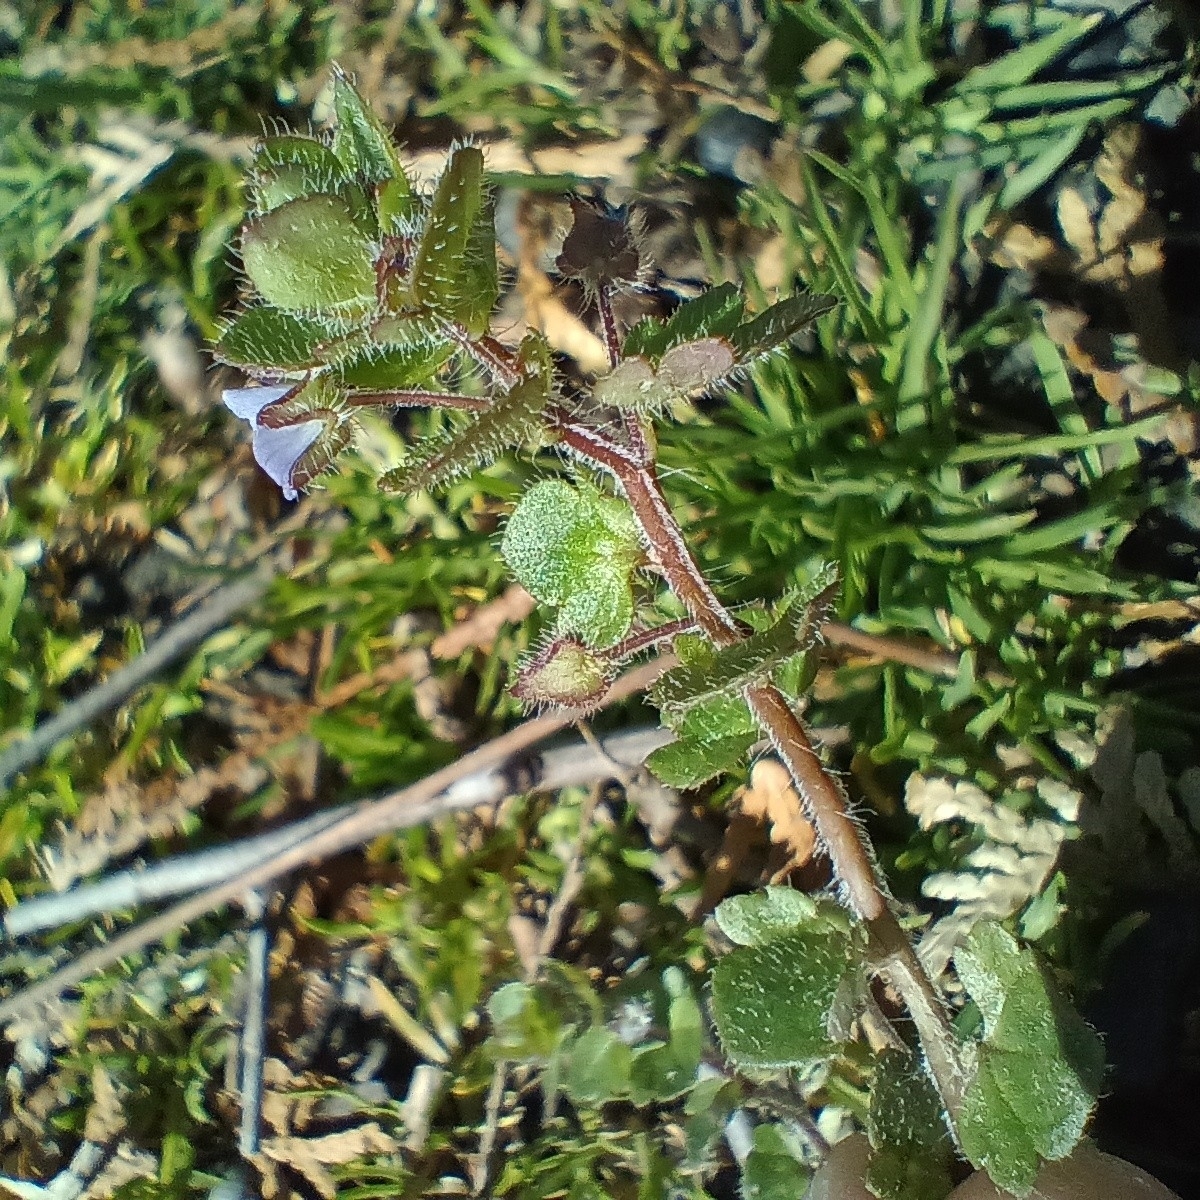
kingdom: Plantae
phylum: Tracheophyta
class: Magnoliopsida
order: Lamiales
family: Plantaginaceae
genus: Veronica
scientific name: Veronica hederifolia
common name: Ivy-leaved speedwell
